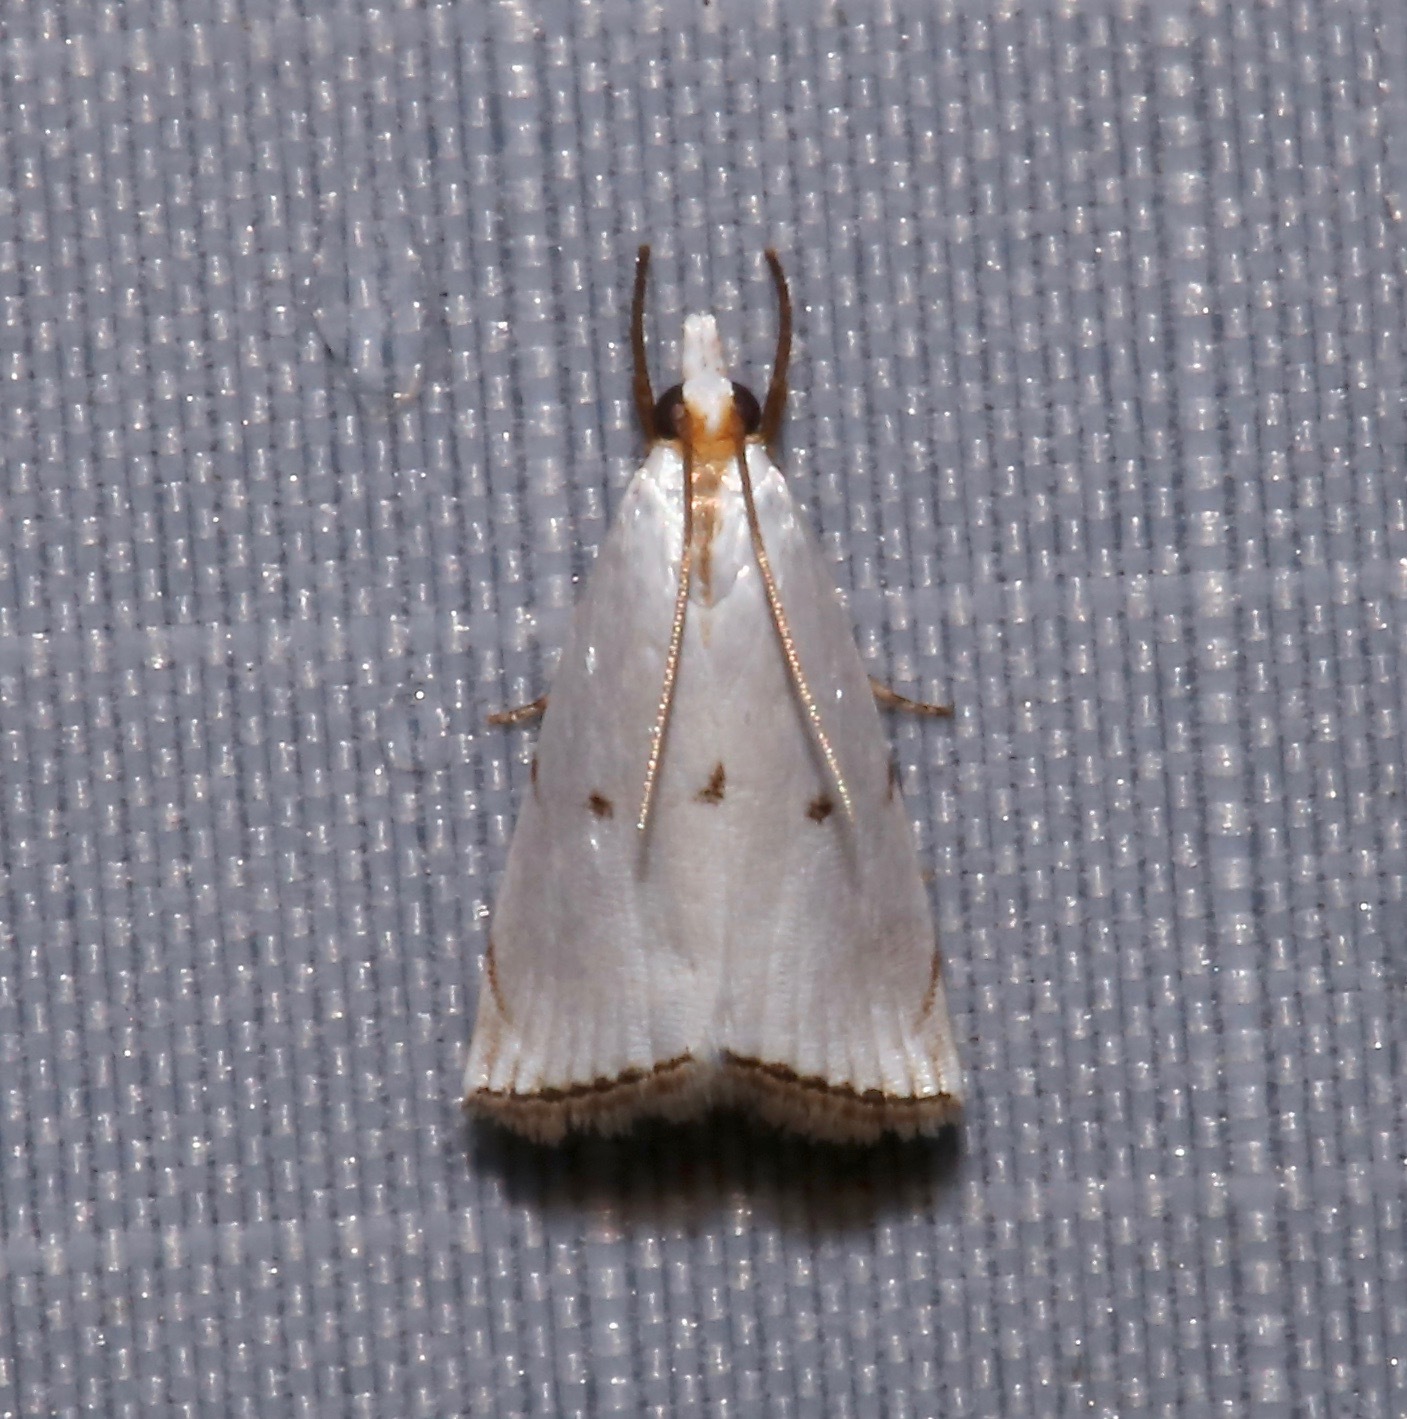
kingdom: Animalia
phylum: Arthropoda
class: Insecta
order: Lepidoptera
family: Crambidae
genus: Argyria
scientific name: Argyria pusillalis
